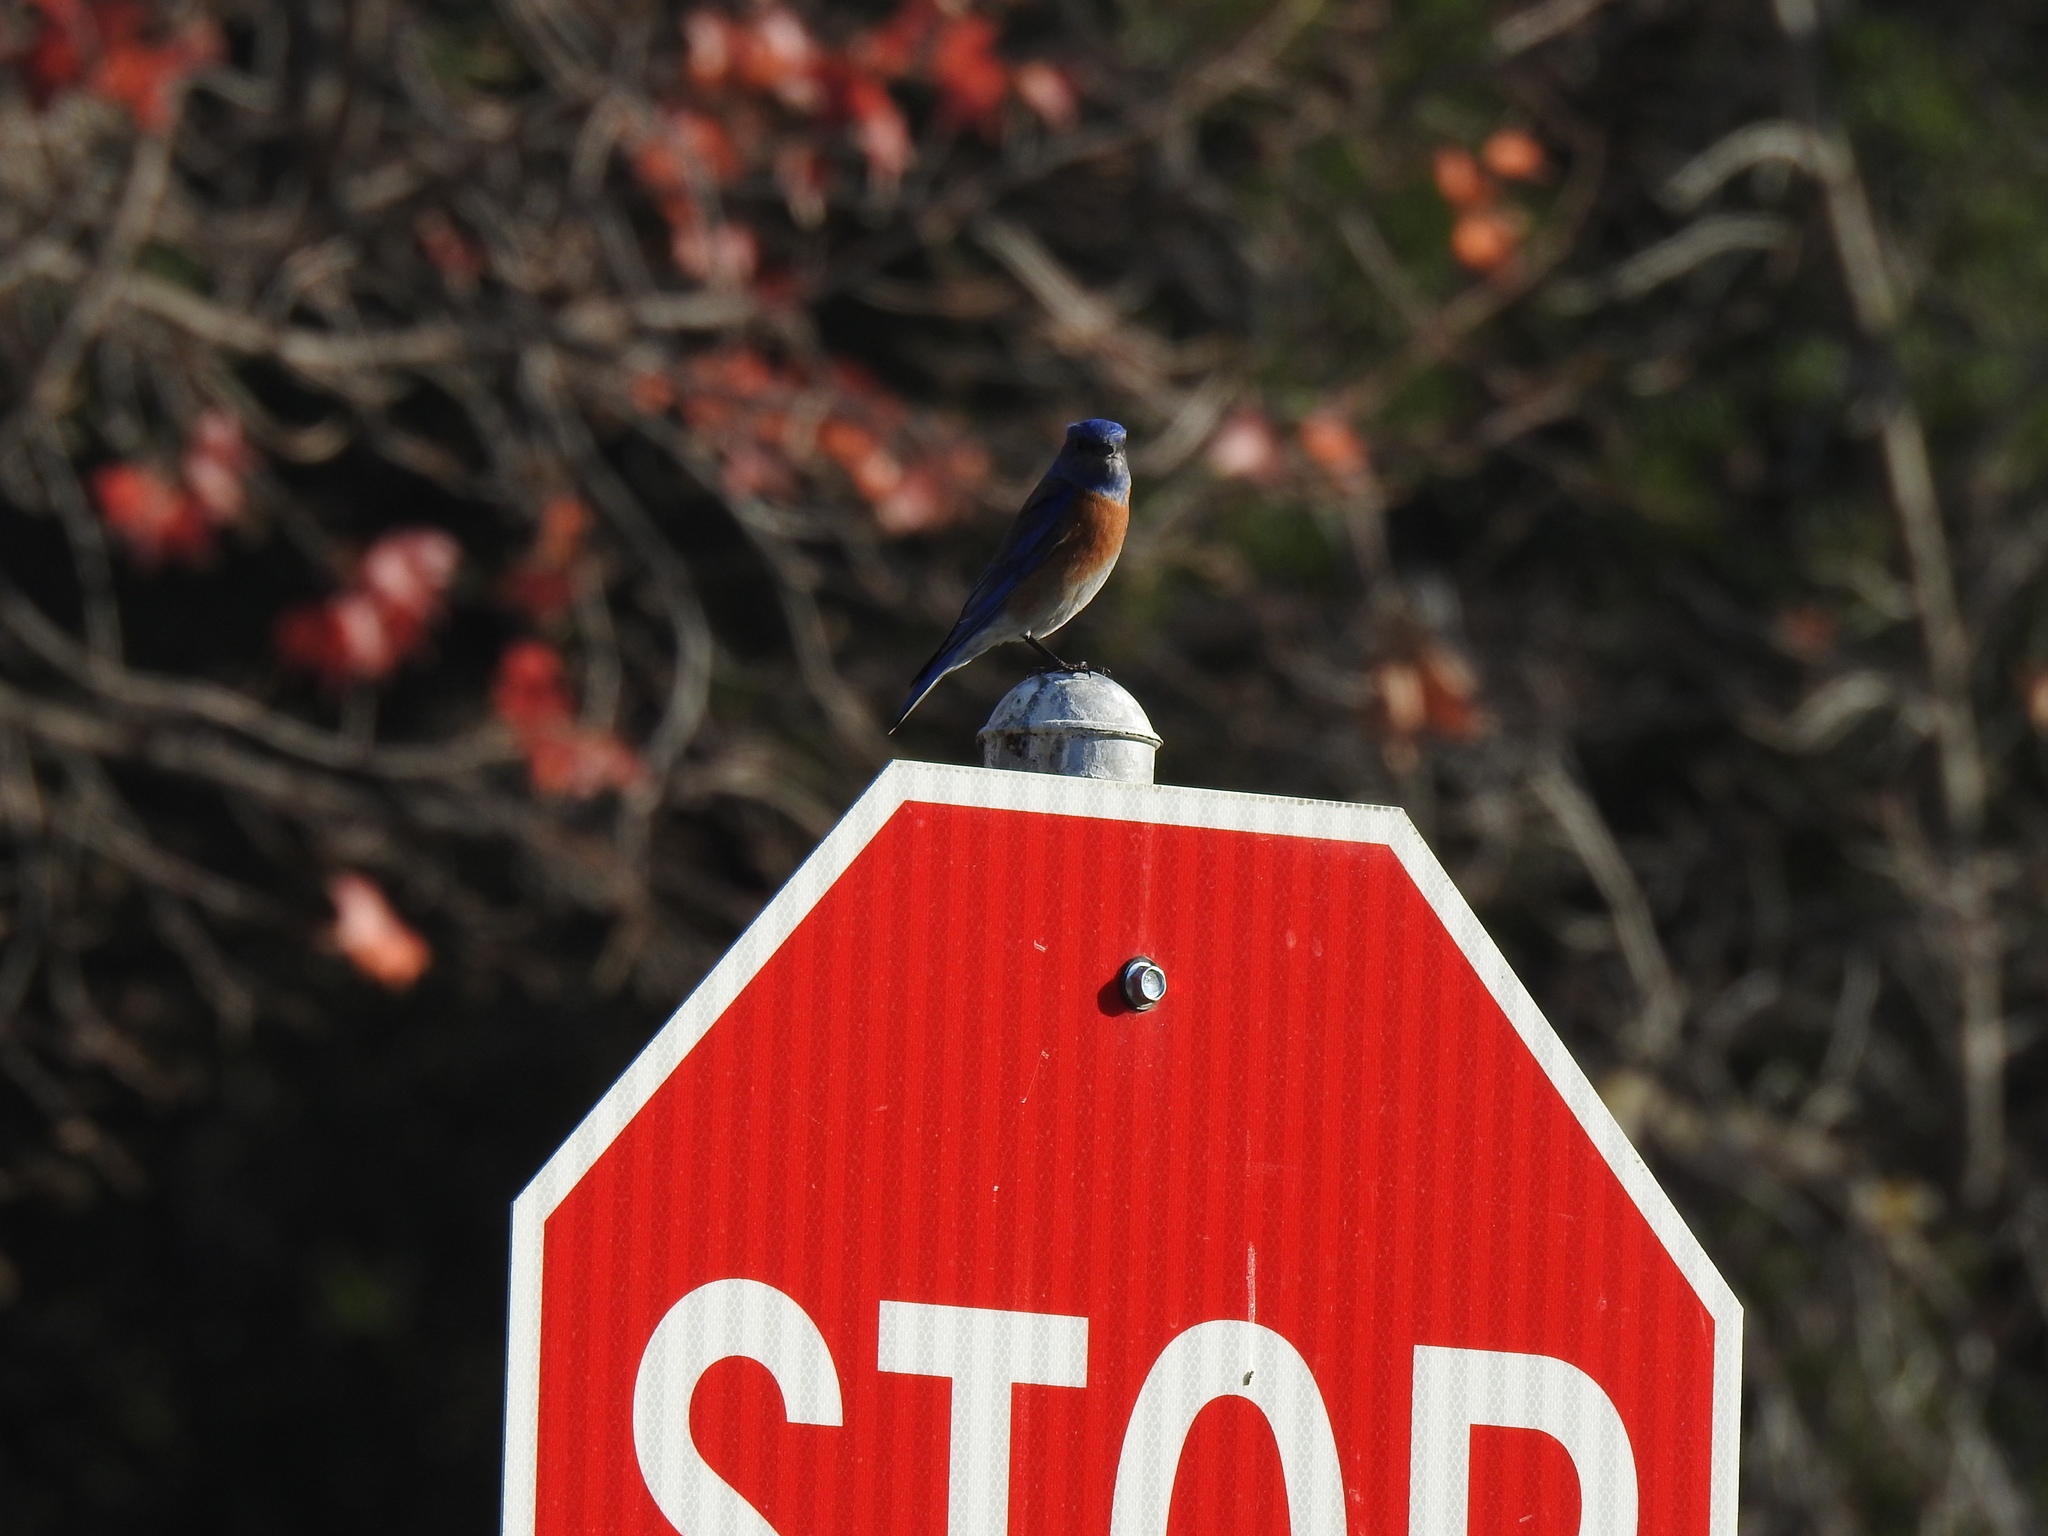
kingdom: Animalia
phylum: Chordata
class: Aves
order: Passeriformes
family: Turdidae
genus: Sialia
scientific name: Sialia mexicana
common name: Western bluebird
